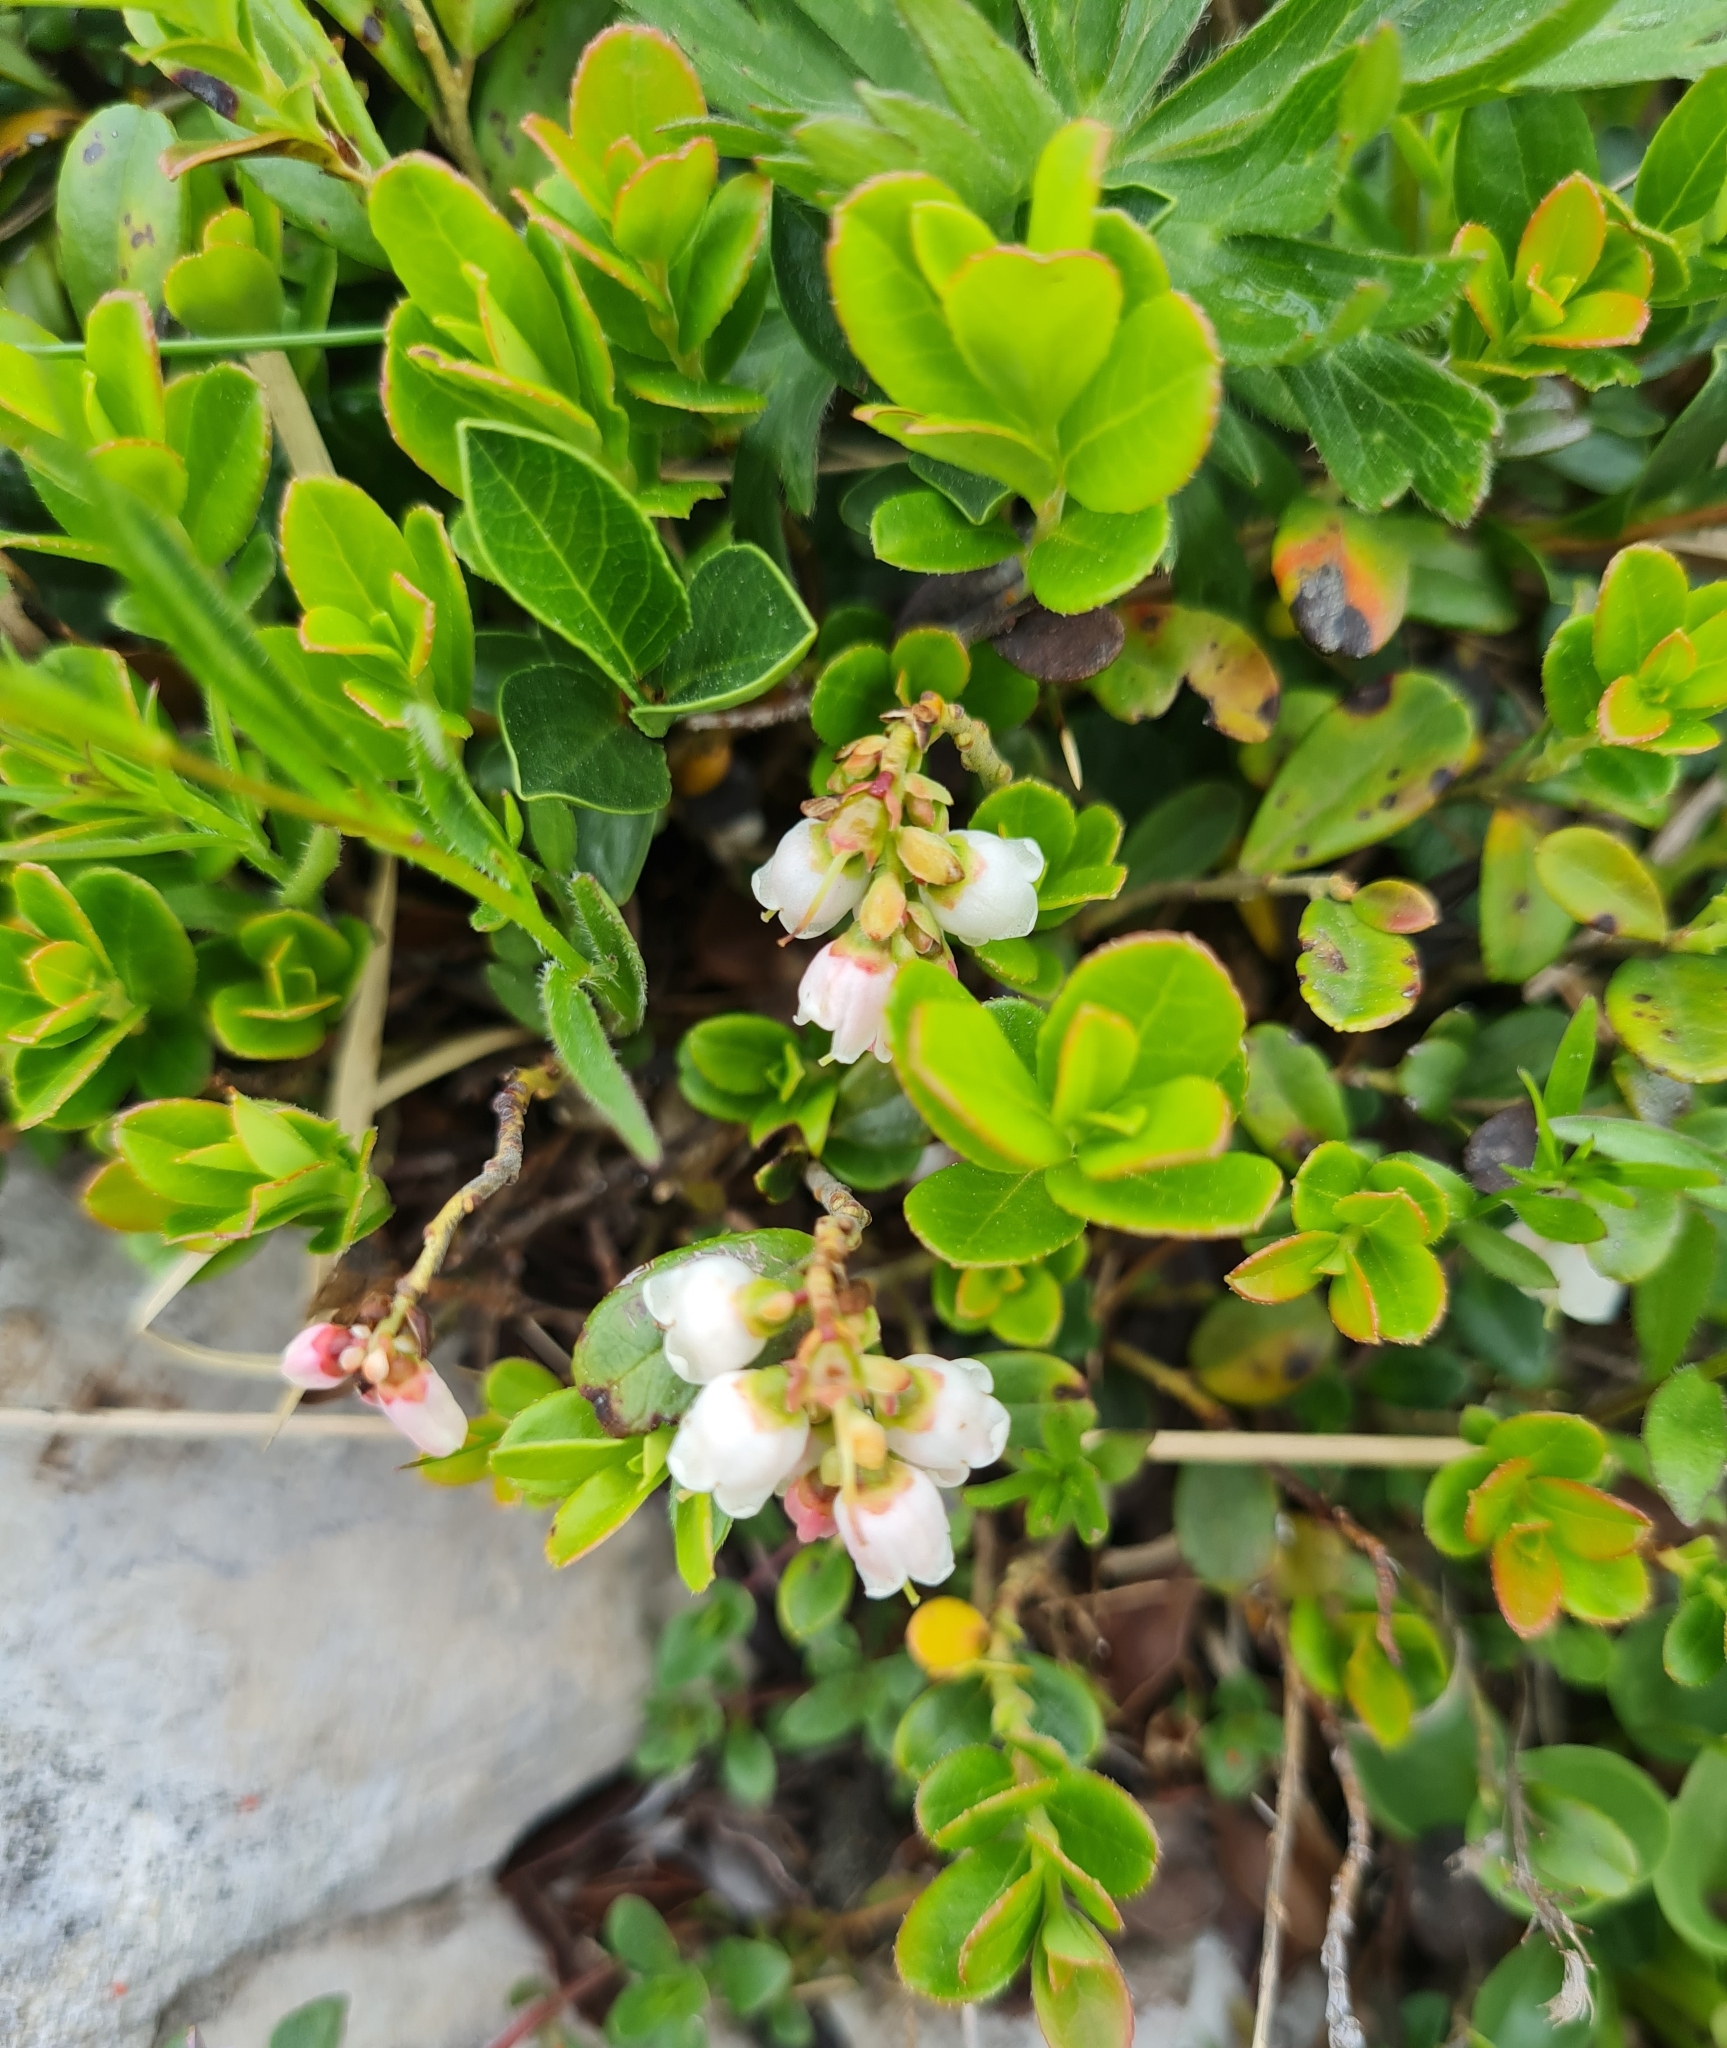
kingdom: Plantae
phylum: Tracheophyta
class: Magnoliopsida
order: Ericales
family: Ericaceae
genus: Vaccinium
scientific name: Vaccinium vitis-idaea
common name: Cowberry
